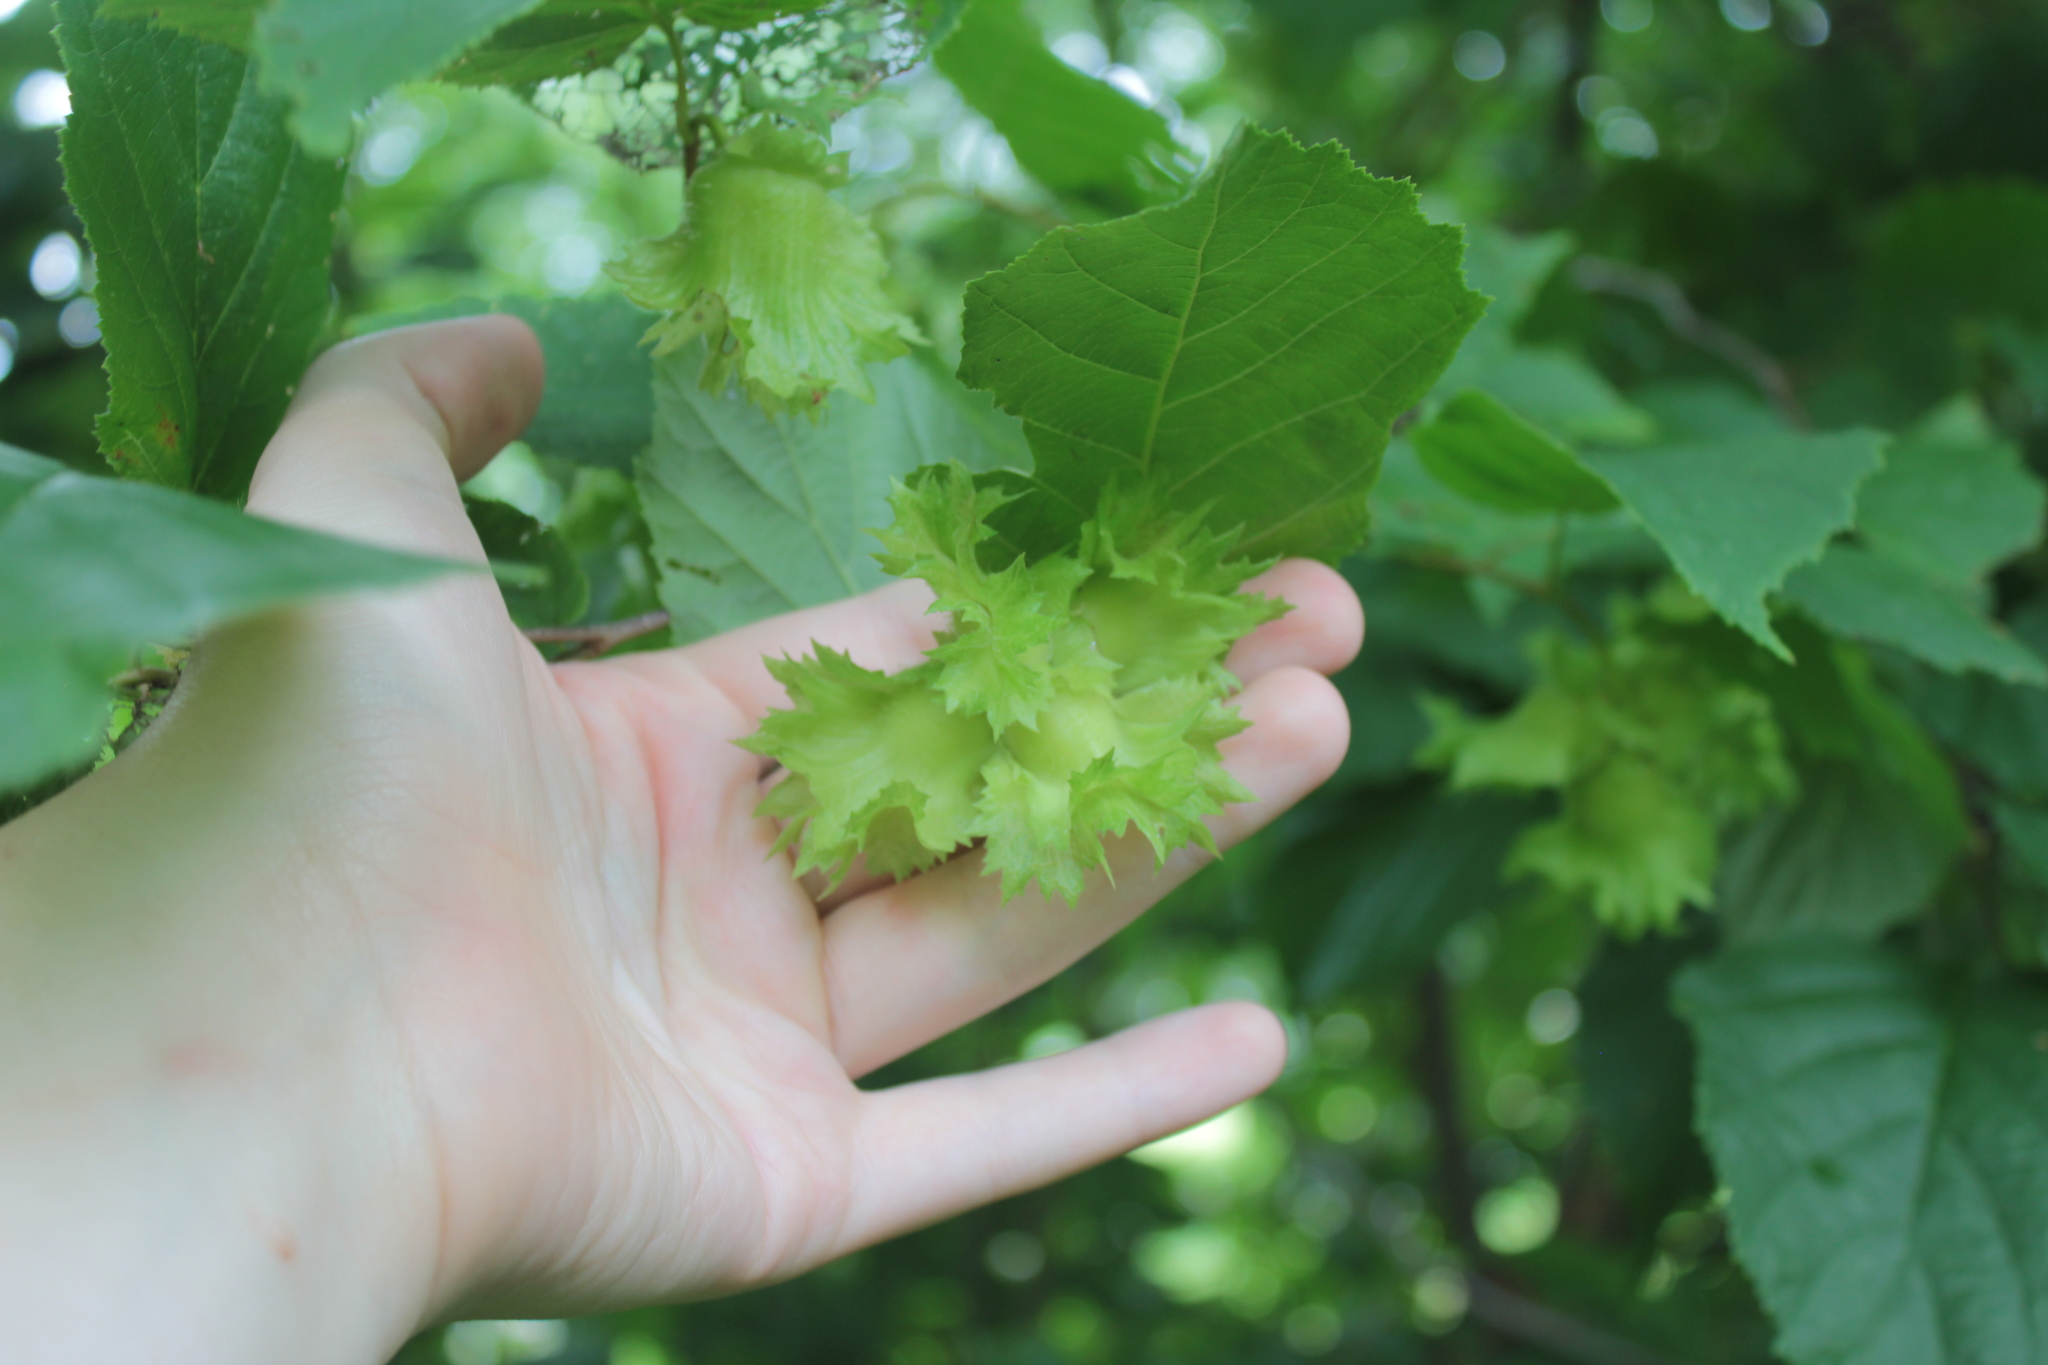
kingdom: Plantae
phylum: Tracheophyta
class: Magnoliopsida
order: Fagales
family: Betulaceae
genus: Corylus
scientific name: Corylus americana
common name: American hazel
